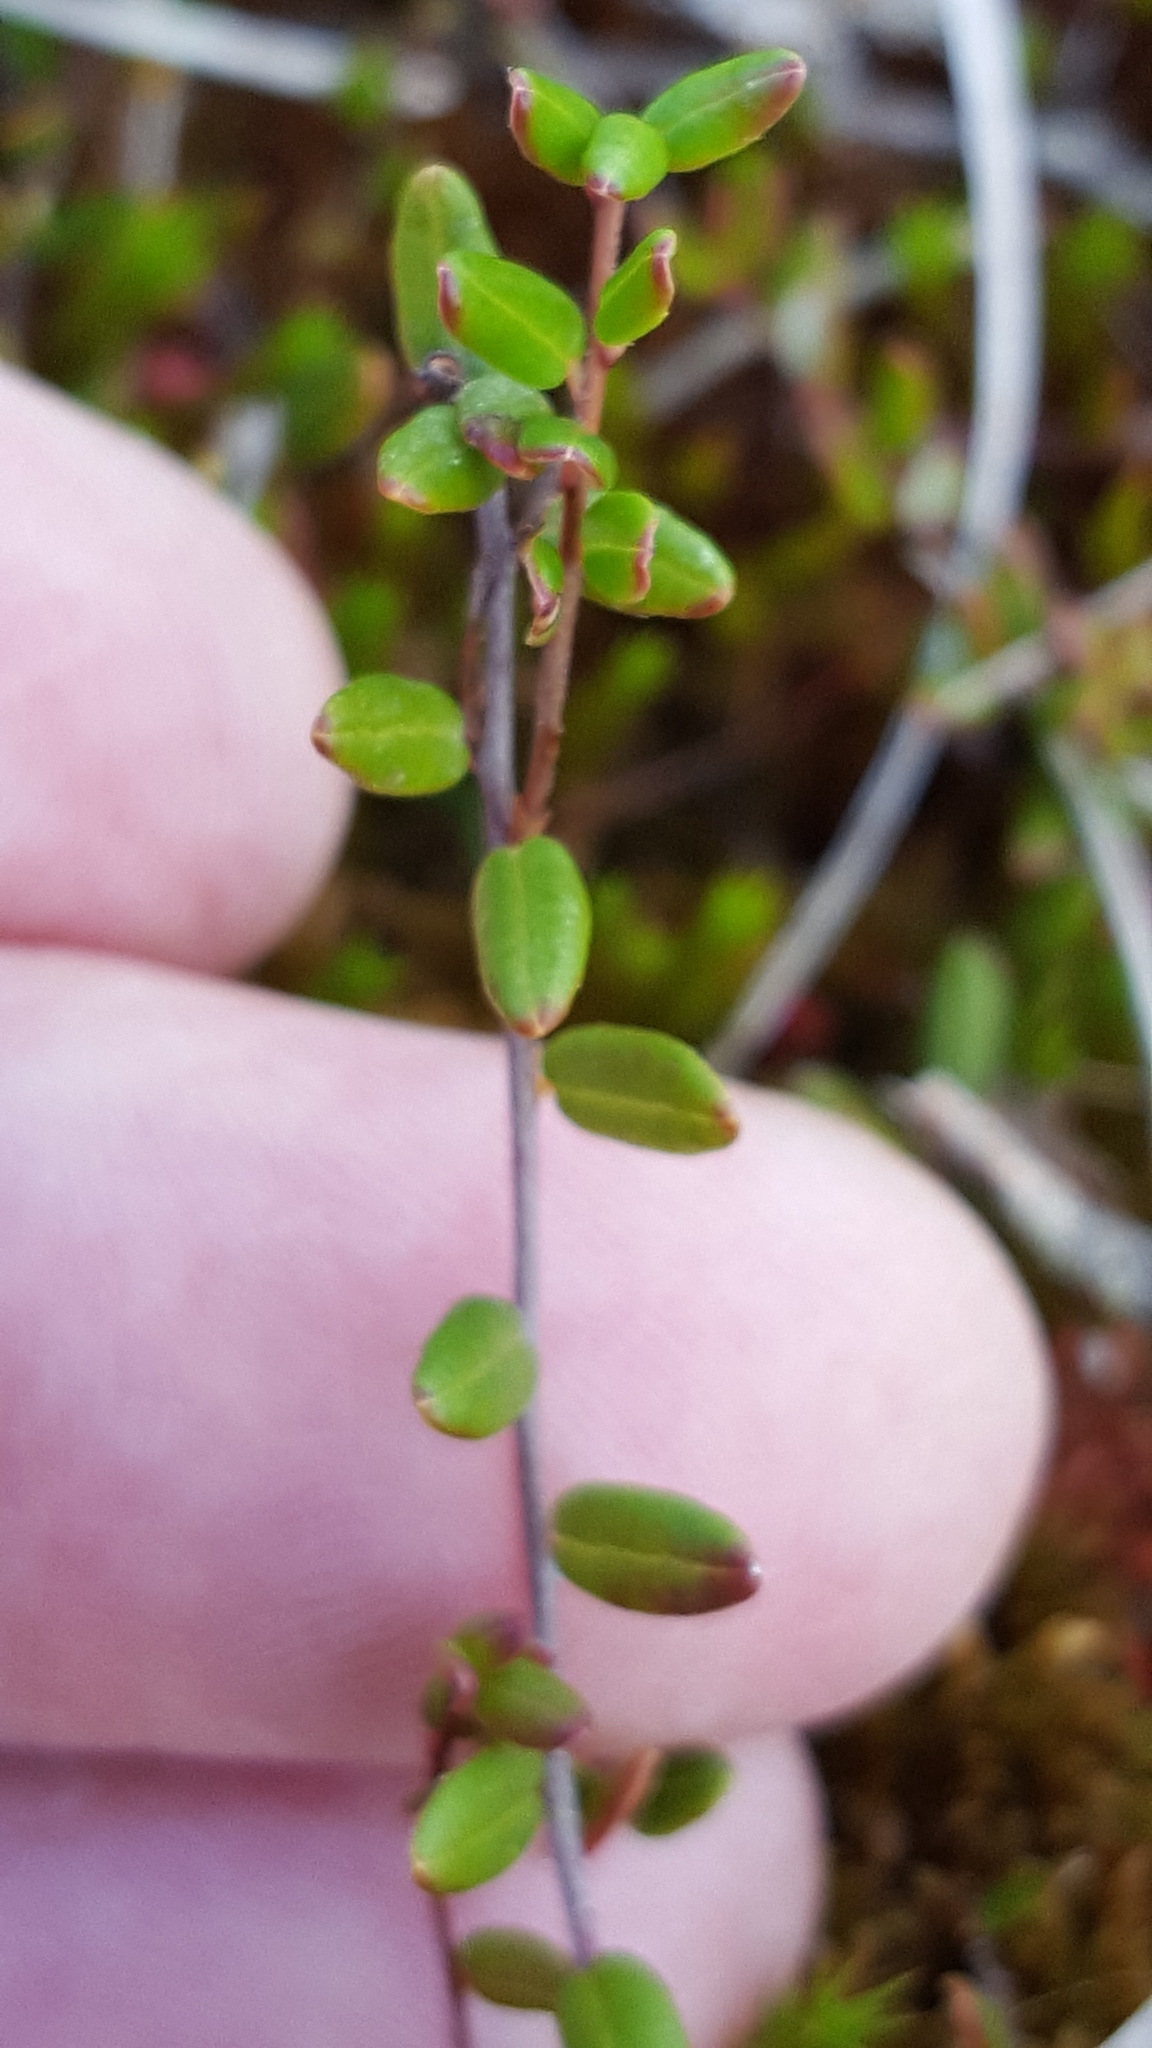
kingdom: Plantae
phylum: Tracheophyta
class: Magnoliopsida
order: Ericales
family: Ericaceae
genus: Vaccinium
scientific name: Vaccinium oxycoccos
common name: Cranberry
